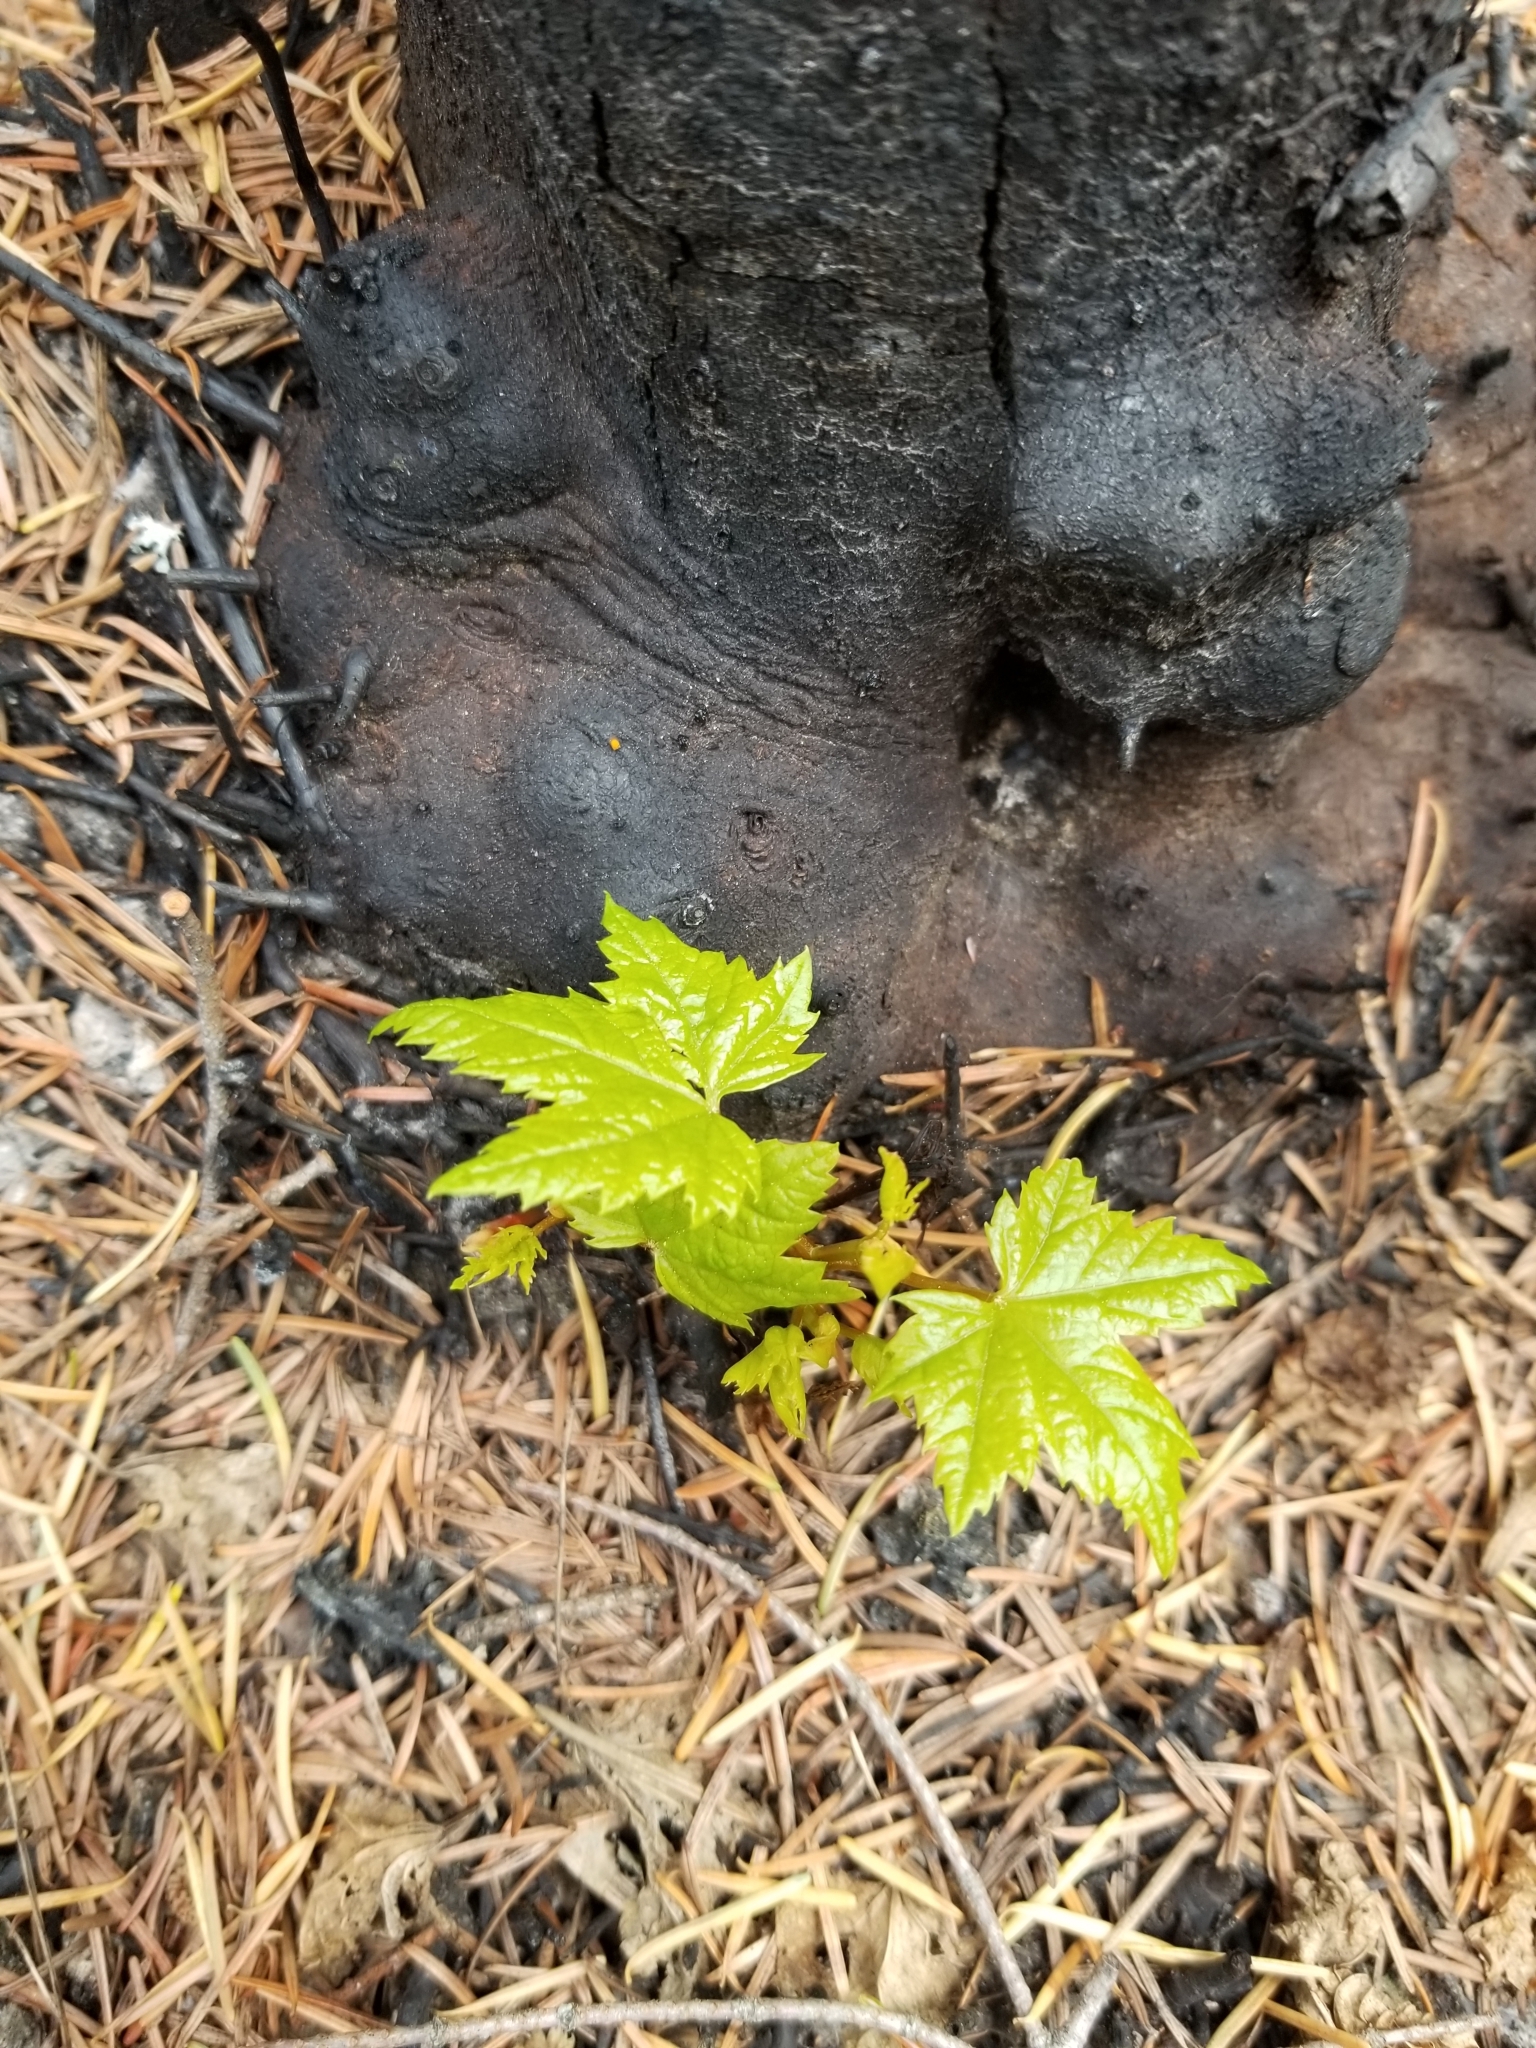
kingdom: Plantae
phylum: Tracheophyta
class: Magnoliopsida
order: Sapindales
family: Sapindaceae
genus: Acer
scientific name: Acer glabrum
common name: Rocky mountain maple
